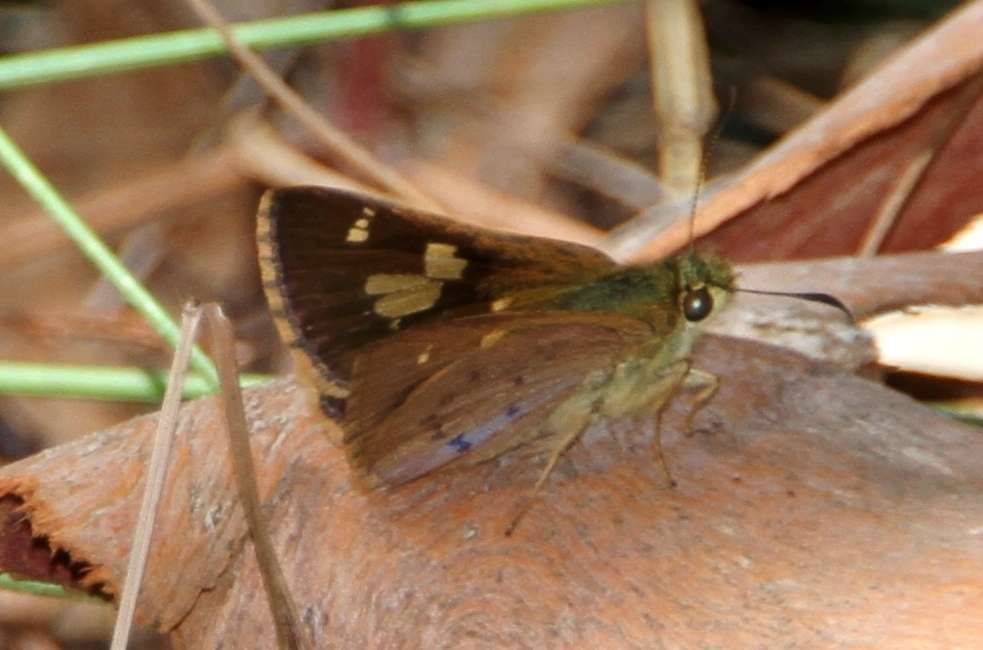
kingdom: Animalia
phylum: Arthropoda
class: Insecta
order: Lepidoptera
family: Hesperiidae
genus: Toxidia
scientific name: Toxidia
